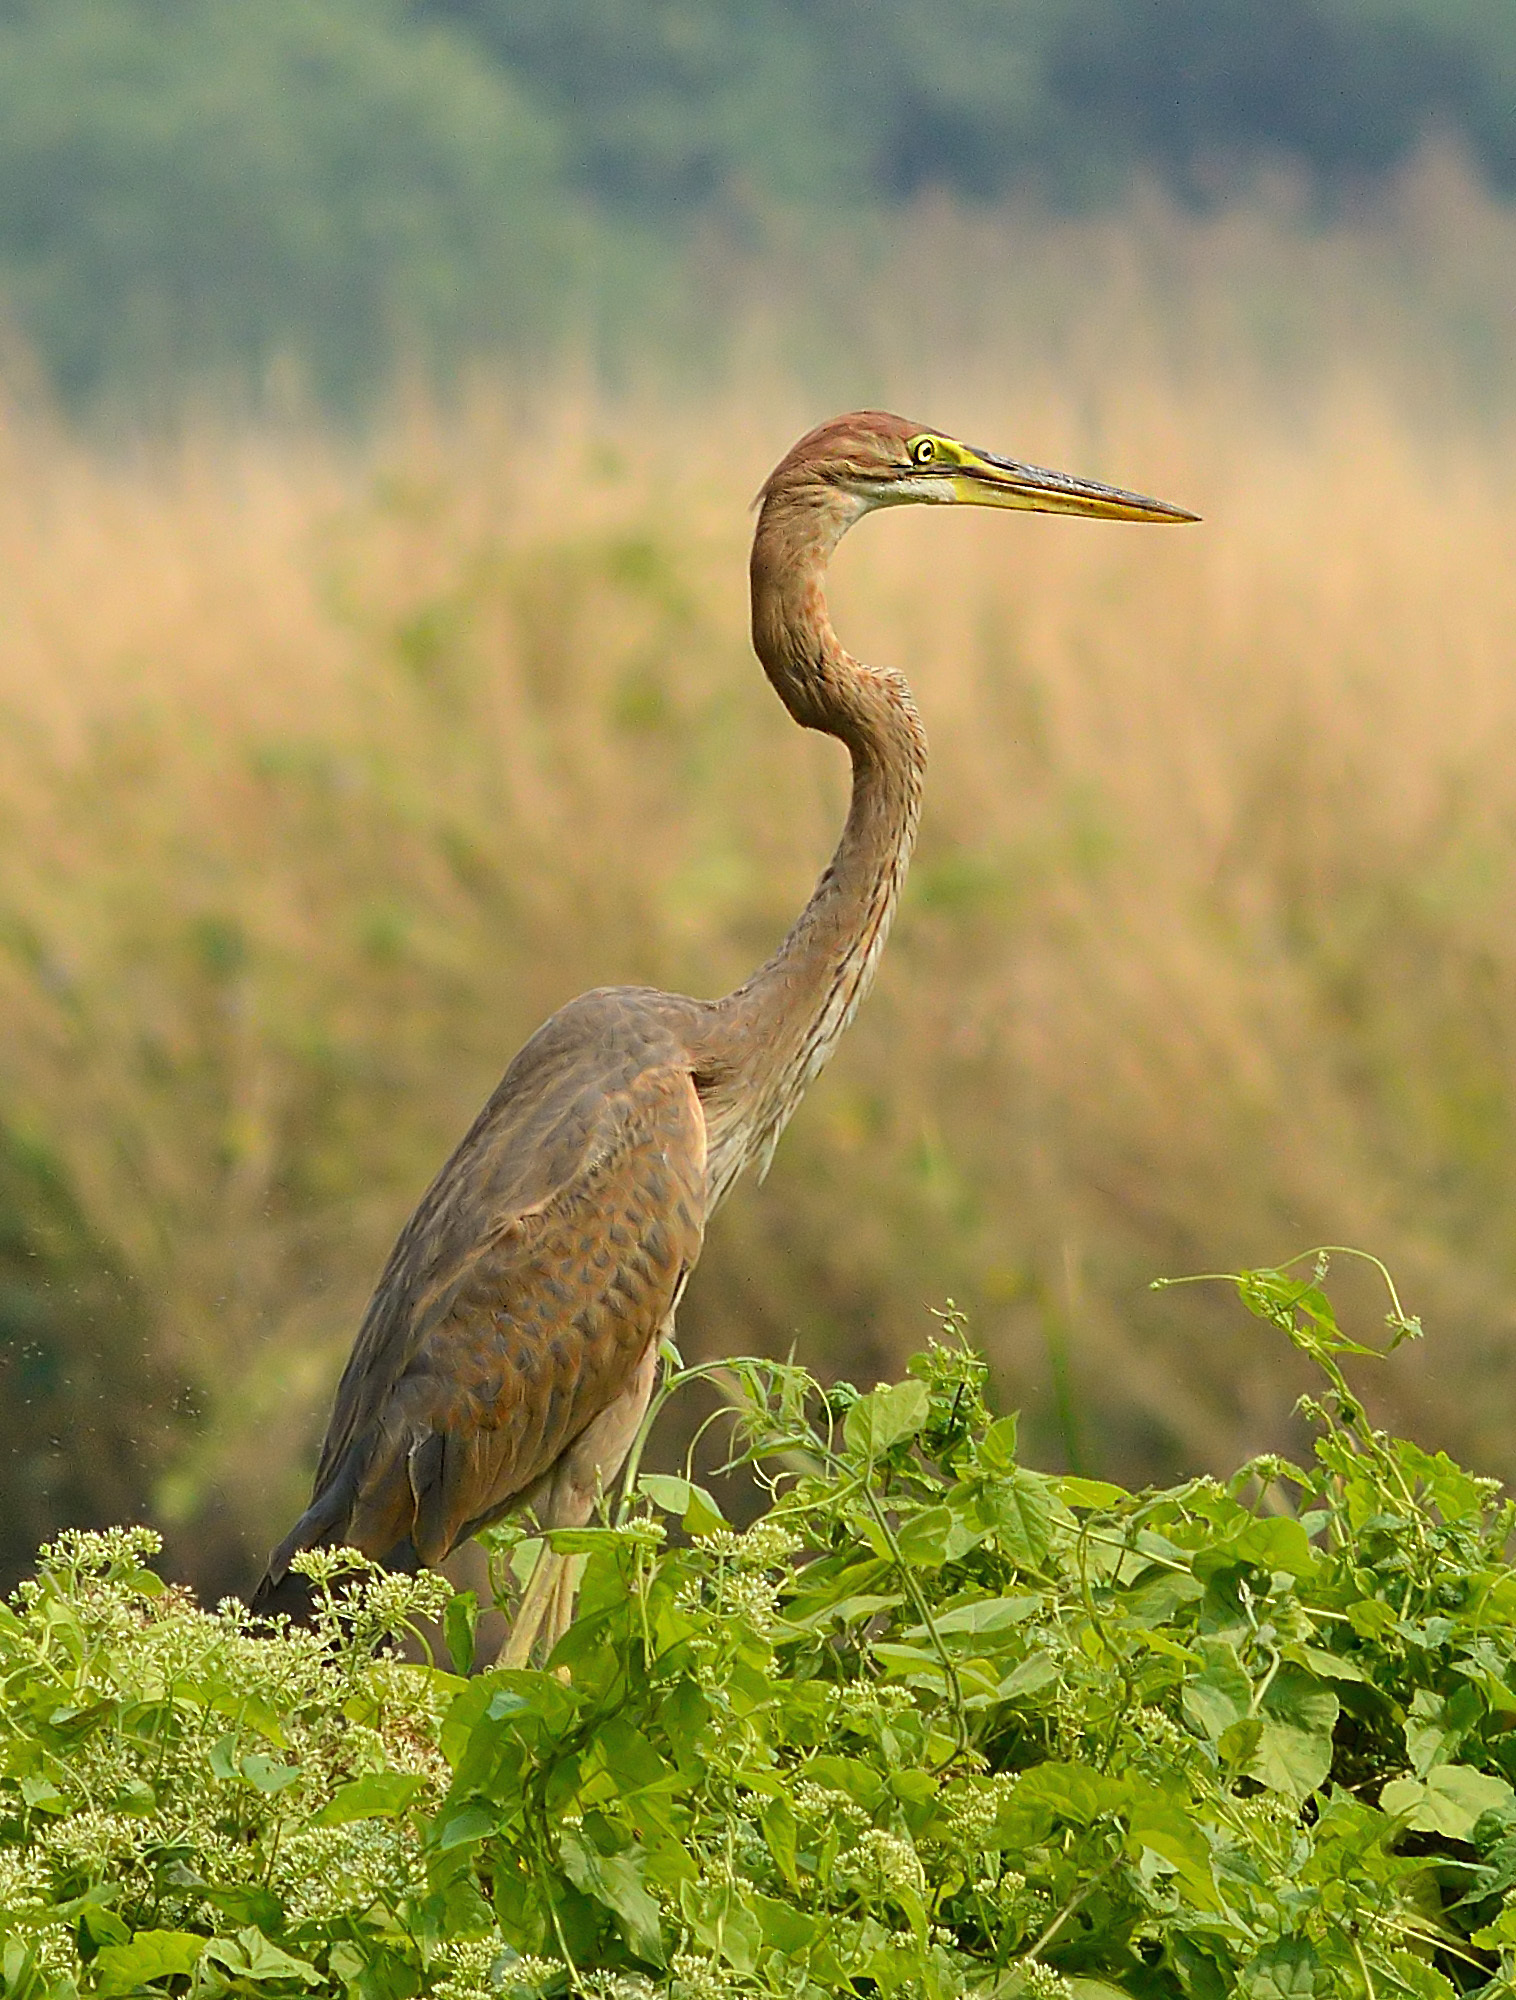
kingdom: Animalia
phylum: Chordata
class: Aves
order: Pelecaniformes
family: Ardeidae
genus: Ardea
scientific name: Ardea purpurea
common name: Purple heron
